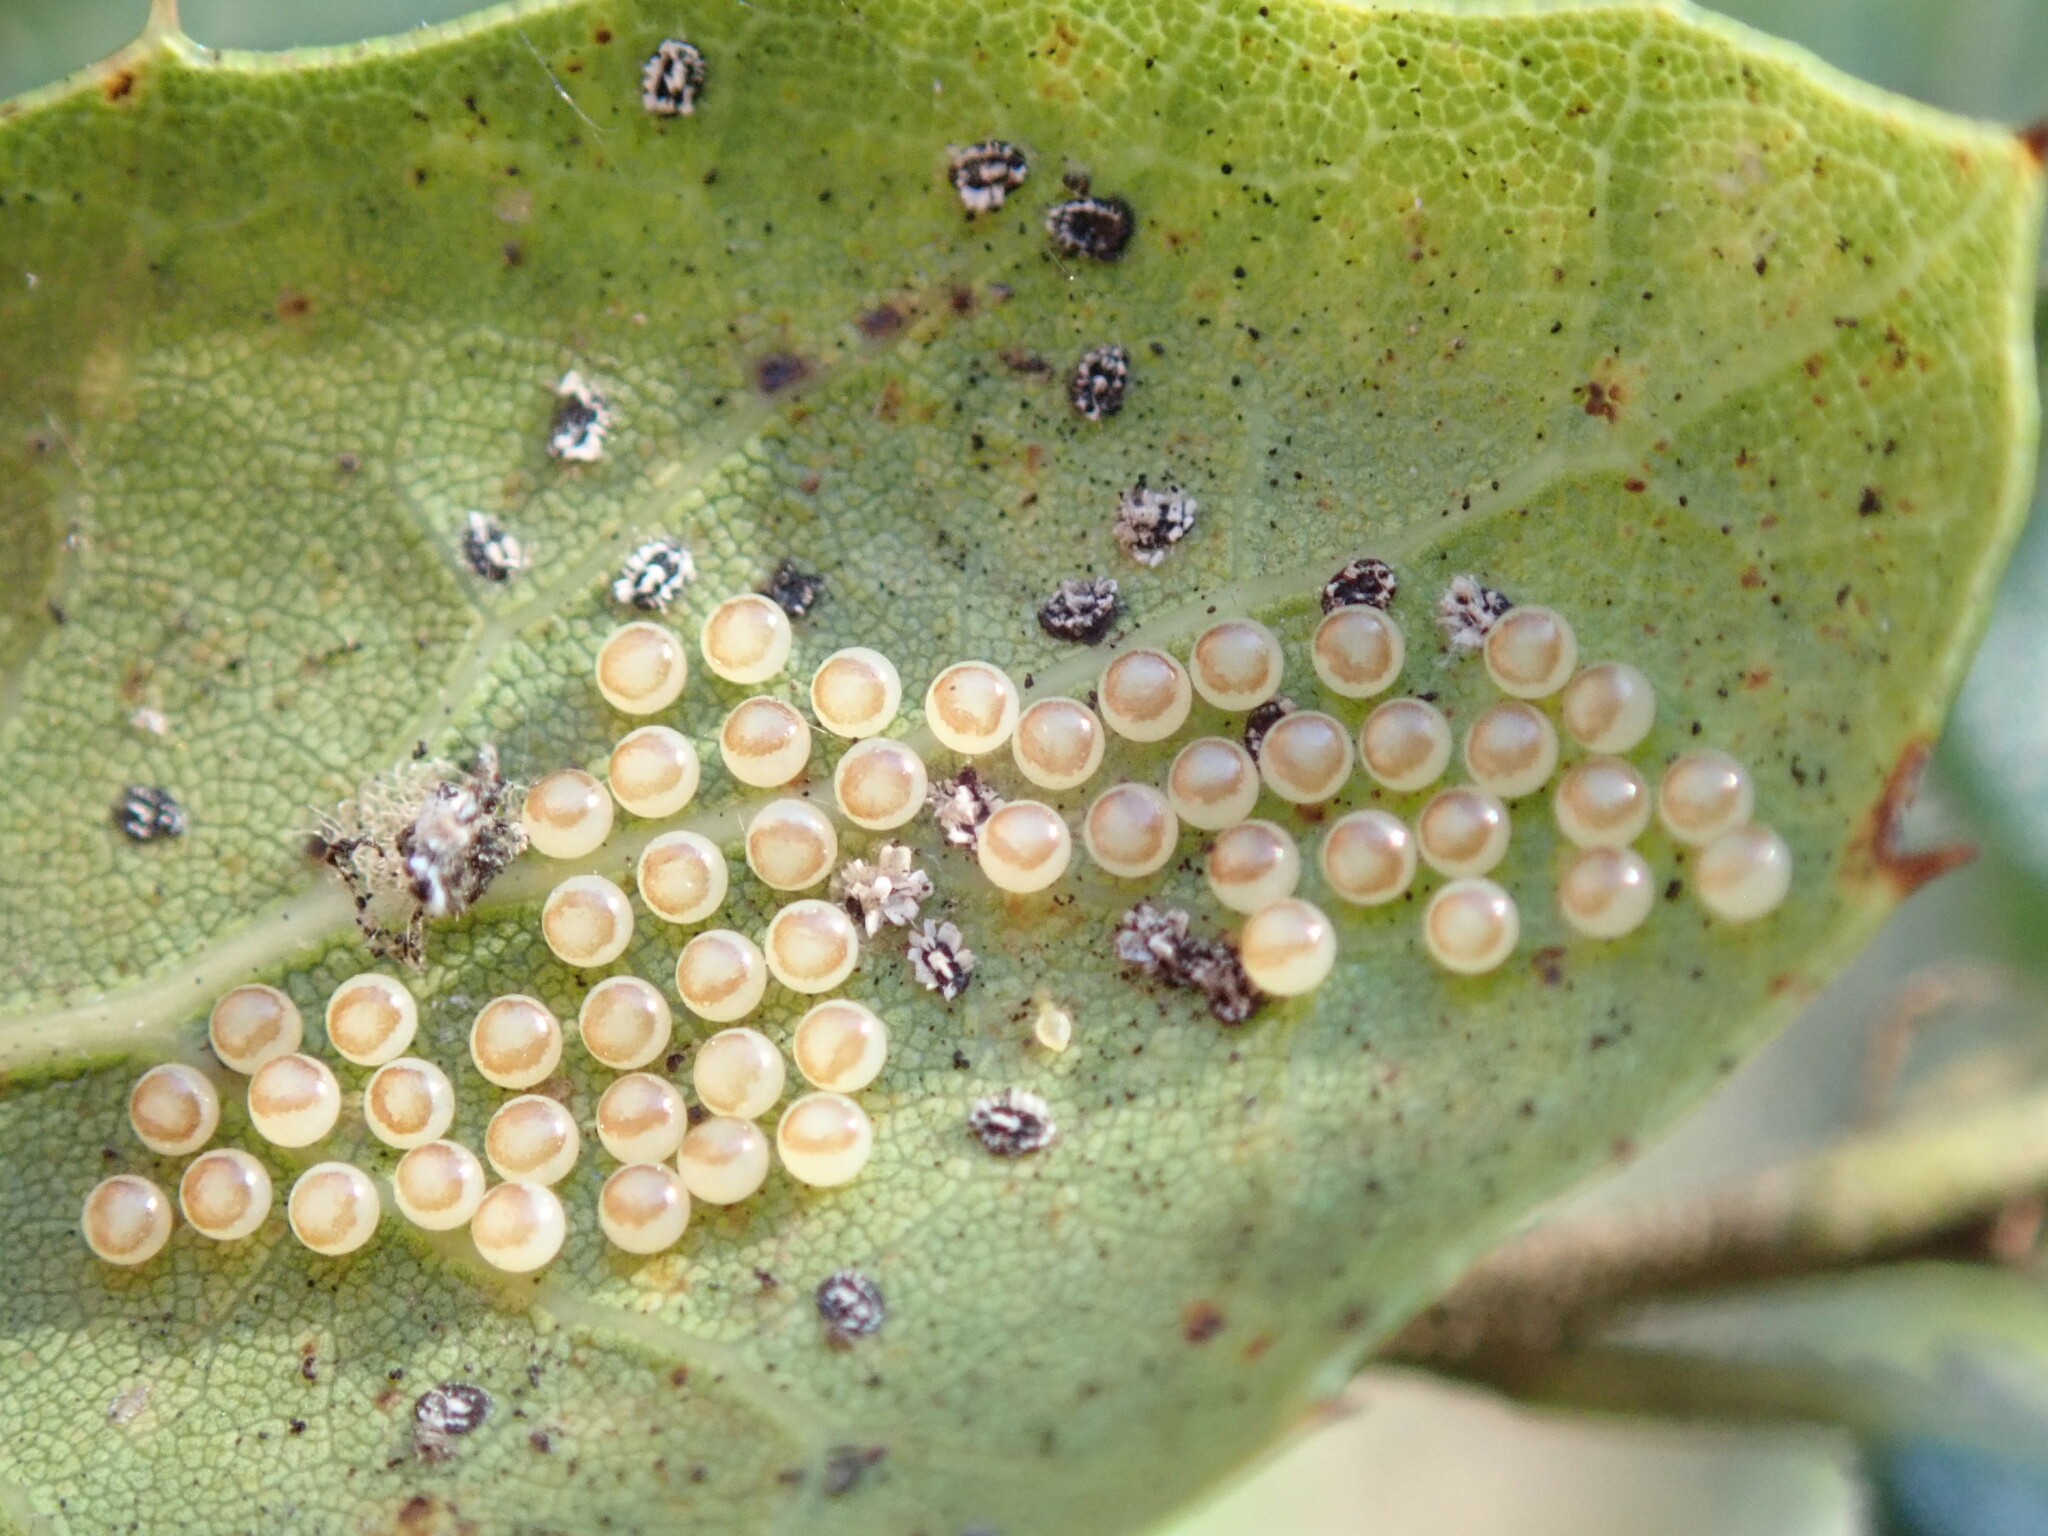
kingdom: Animalia
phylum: Arthropoda
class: Insecta
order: Lepidoptera
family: Notodontidae
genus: Phryganidia
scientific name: Phryganidia californica
